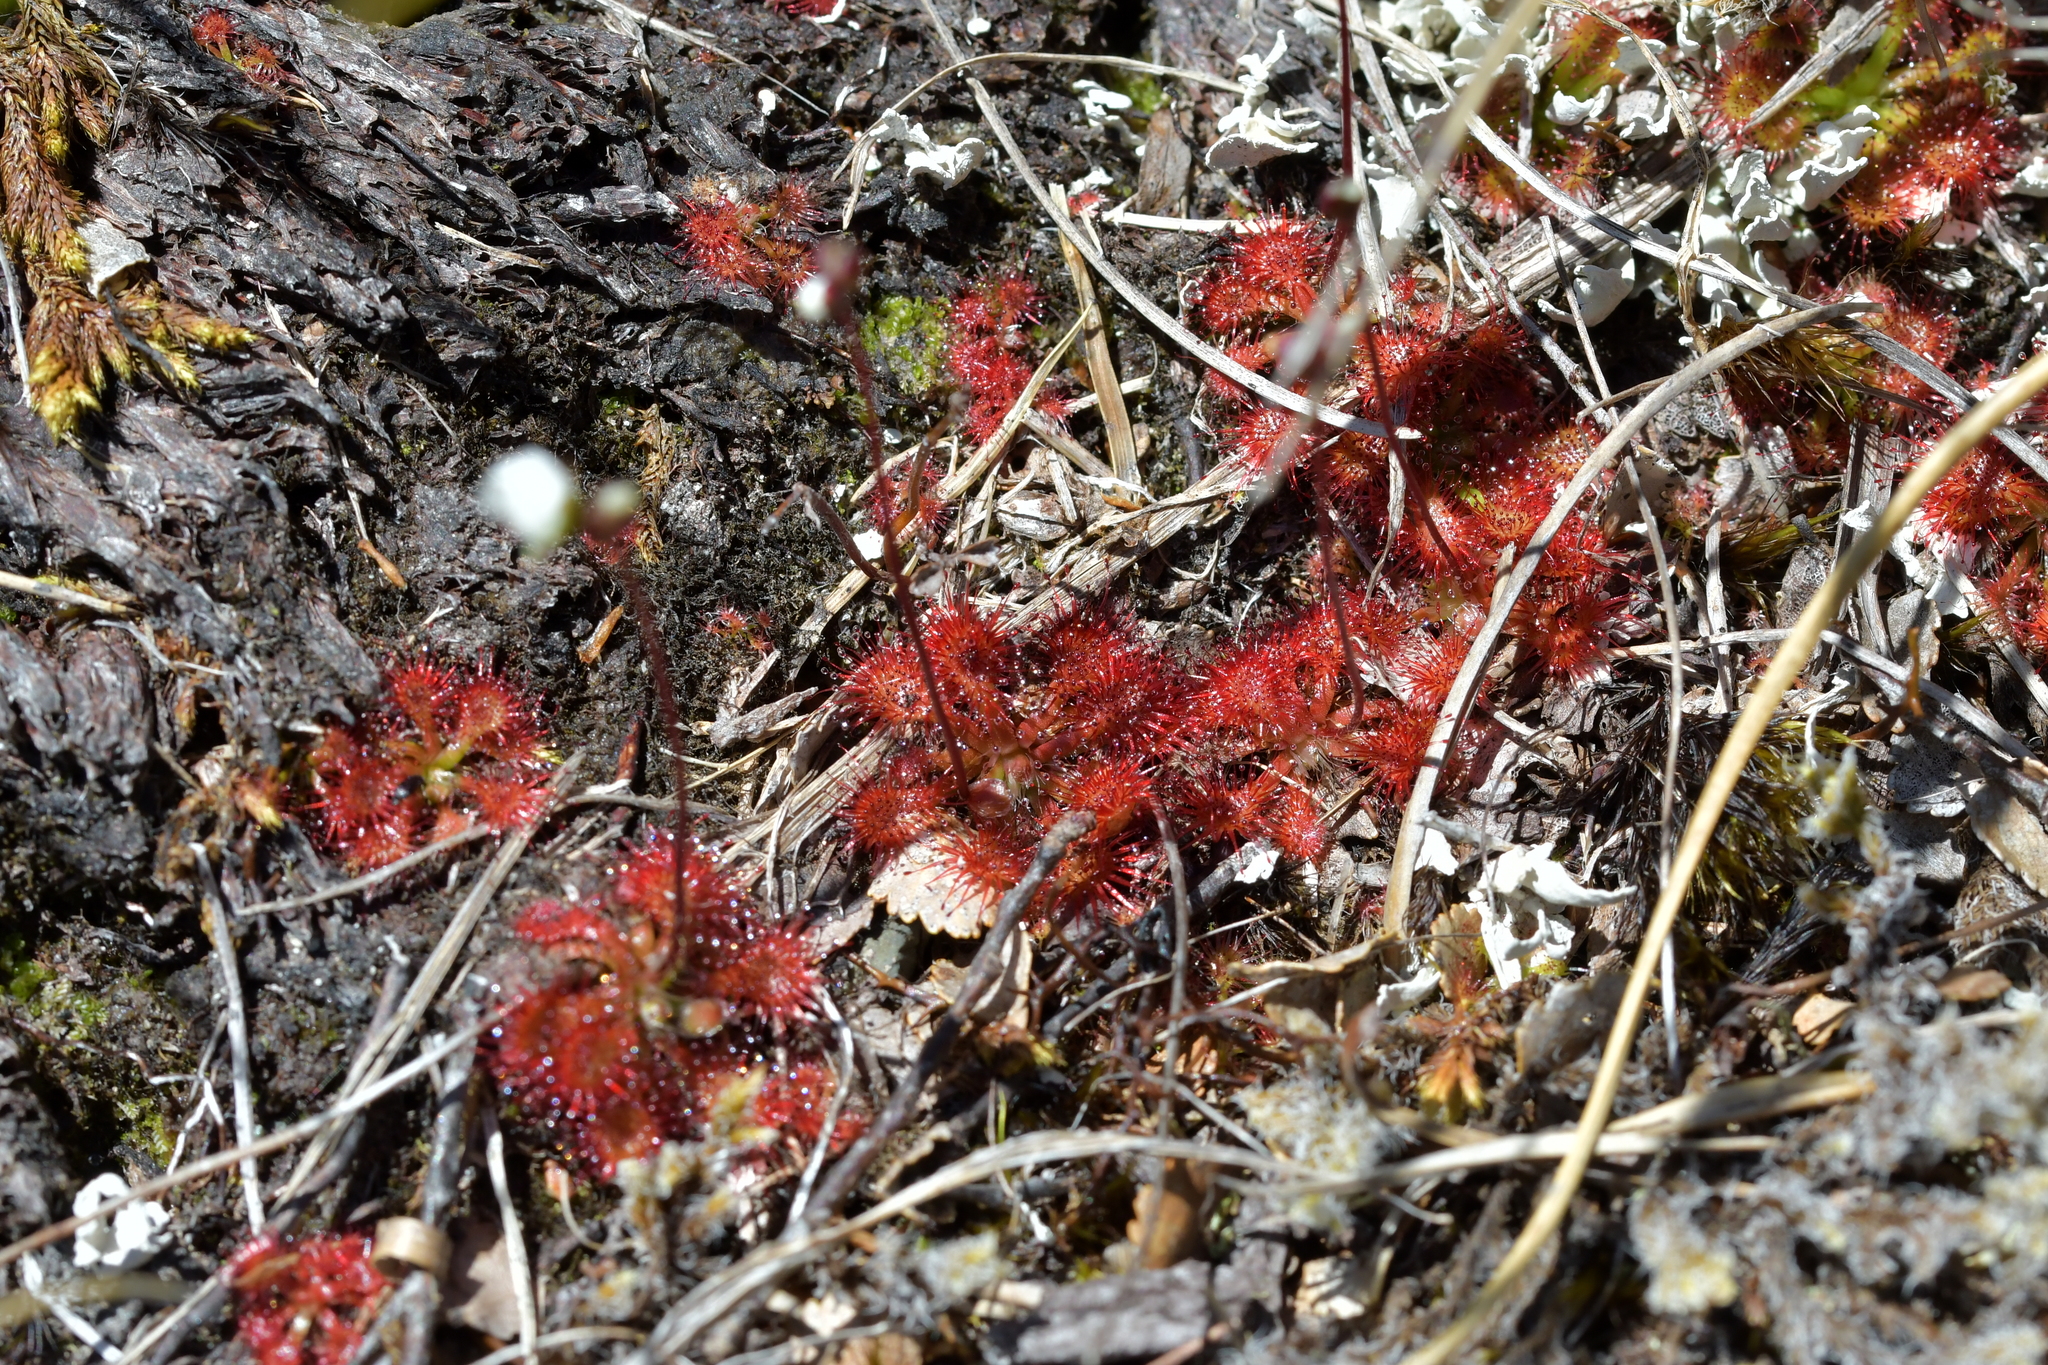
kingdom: Plantae
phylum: Tracheophyta
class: Magnoliopsida
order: Caryophyllales
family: Droseraceae
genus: Drosera
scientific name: Drosera spatulata
